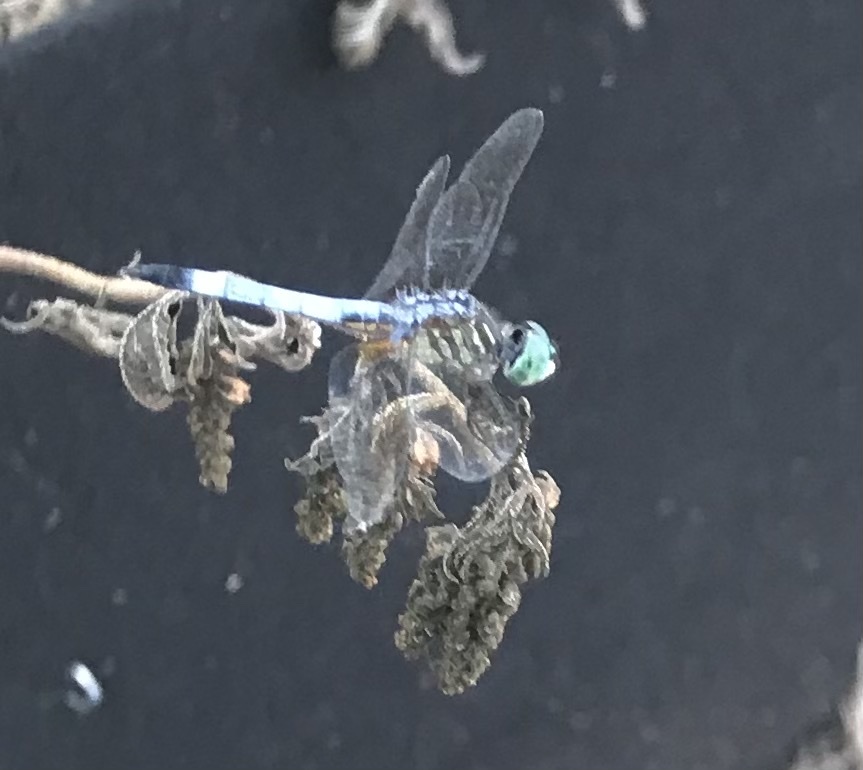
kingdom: Animalia
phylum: Arthropoda
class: Insecta
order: Odonata
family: Libellulidae
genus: Pachydiplax
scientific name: Pachydiplax longipennis
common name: Blue dasher
